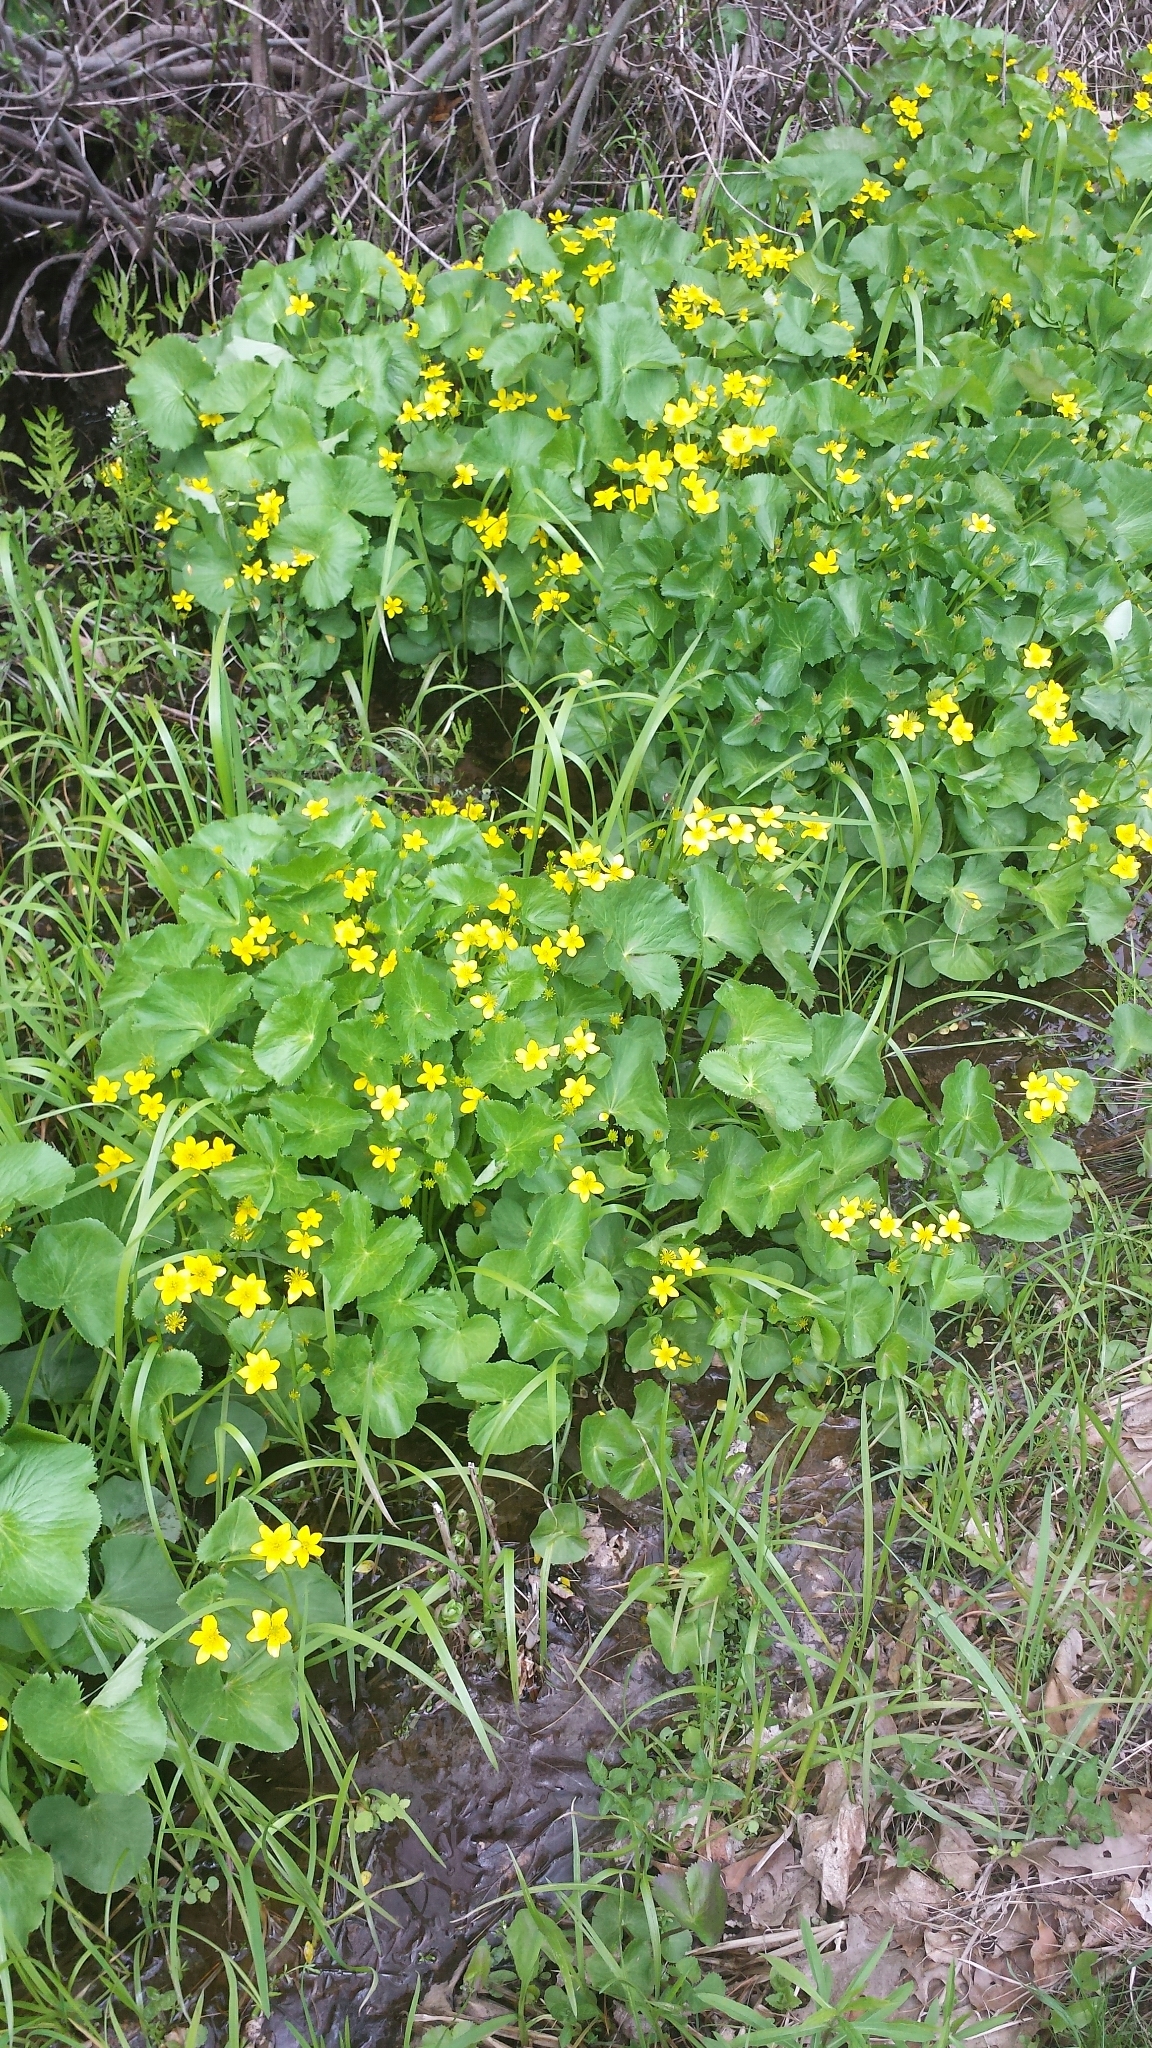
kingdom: Plantae
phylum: Tracheophyta
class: Magnoliopsida
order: Ranunculales
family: Ranunculaceae
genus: Caltha
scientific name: Caltha palustris
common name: Marsh marigold
